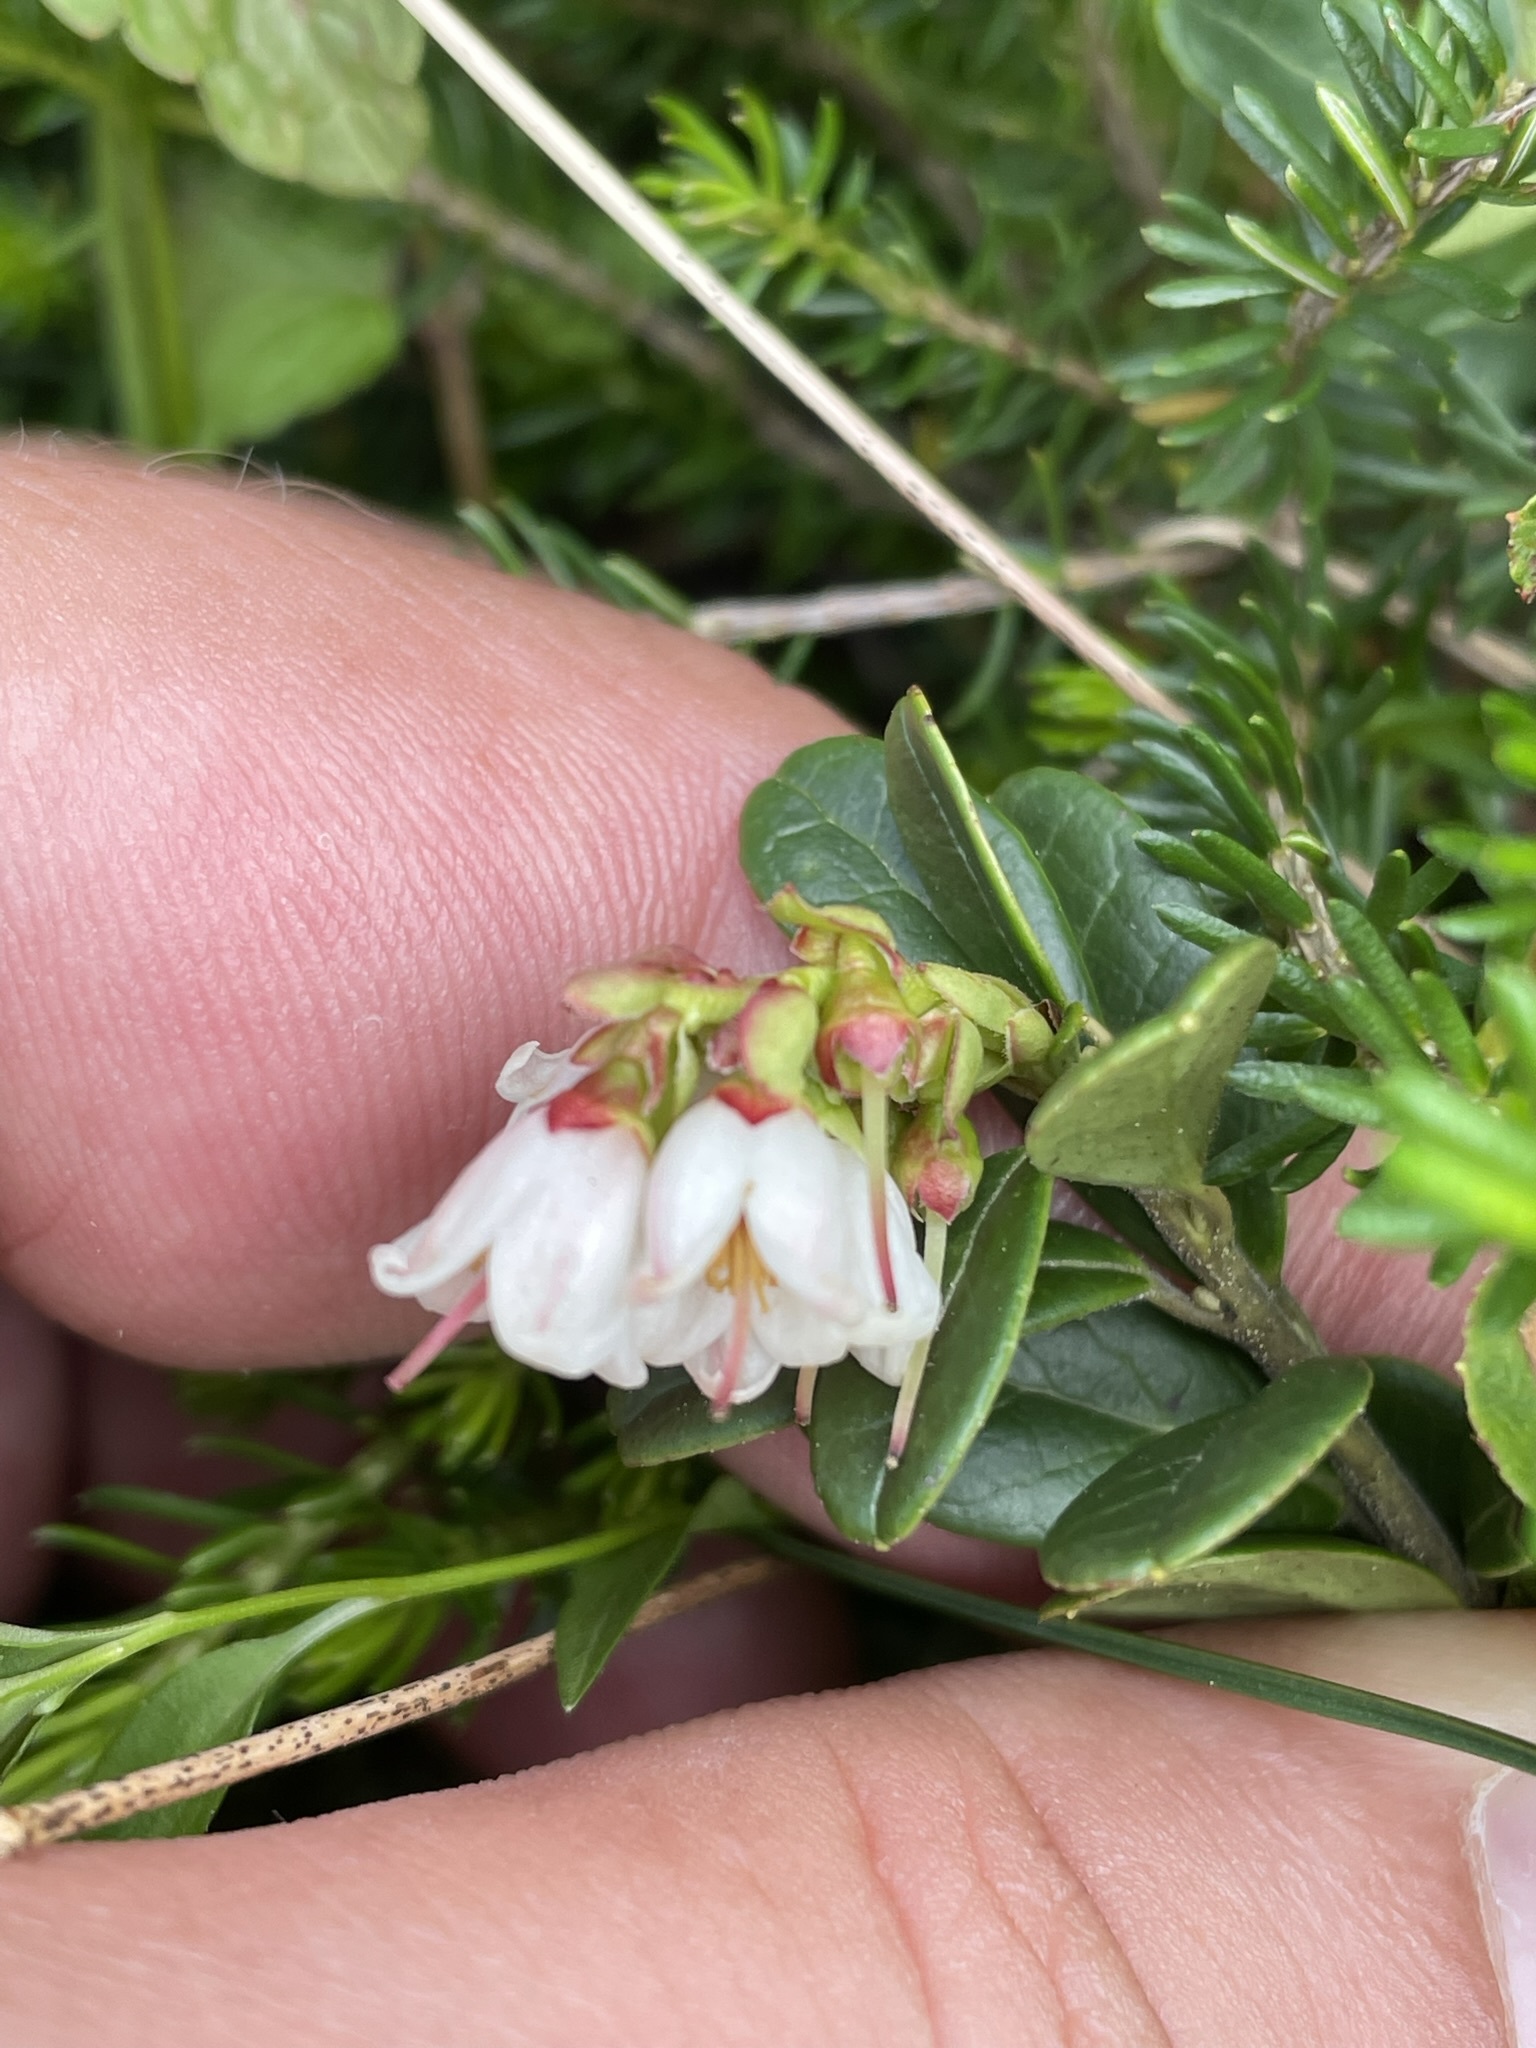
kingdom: Plantae
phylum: Tracheophyta
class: Magnoliopsida
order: Ericales
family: Ericaceae
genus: Vaccinium
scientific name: Vaccinium vitis-idaea
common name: Cowberry
